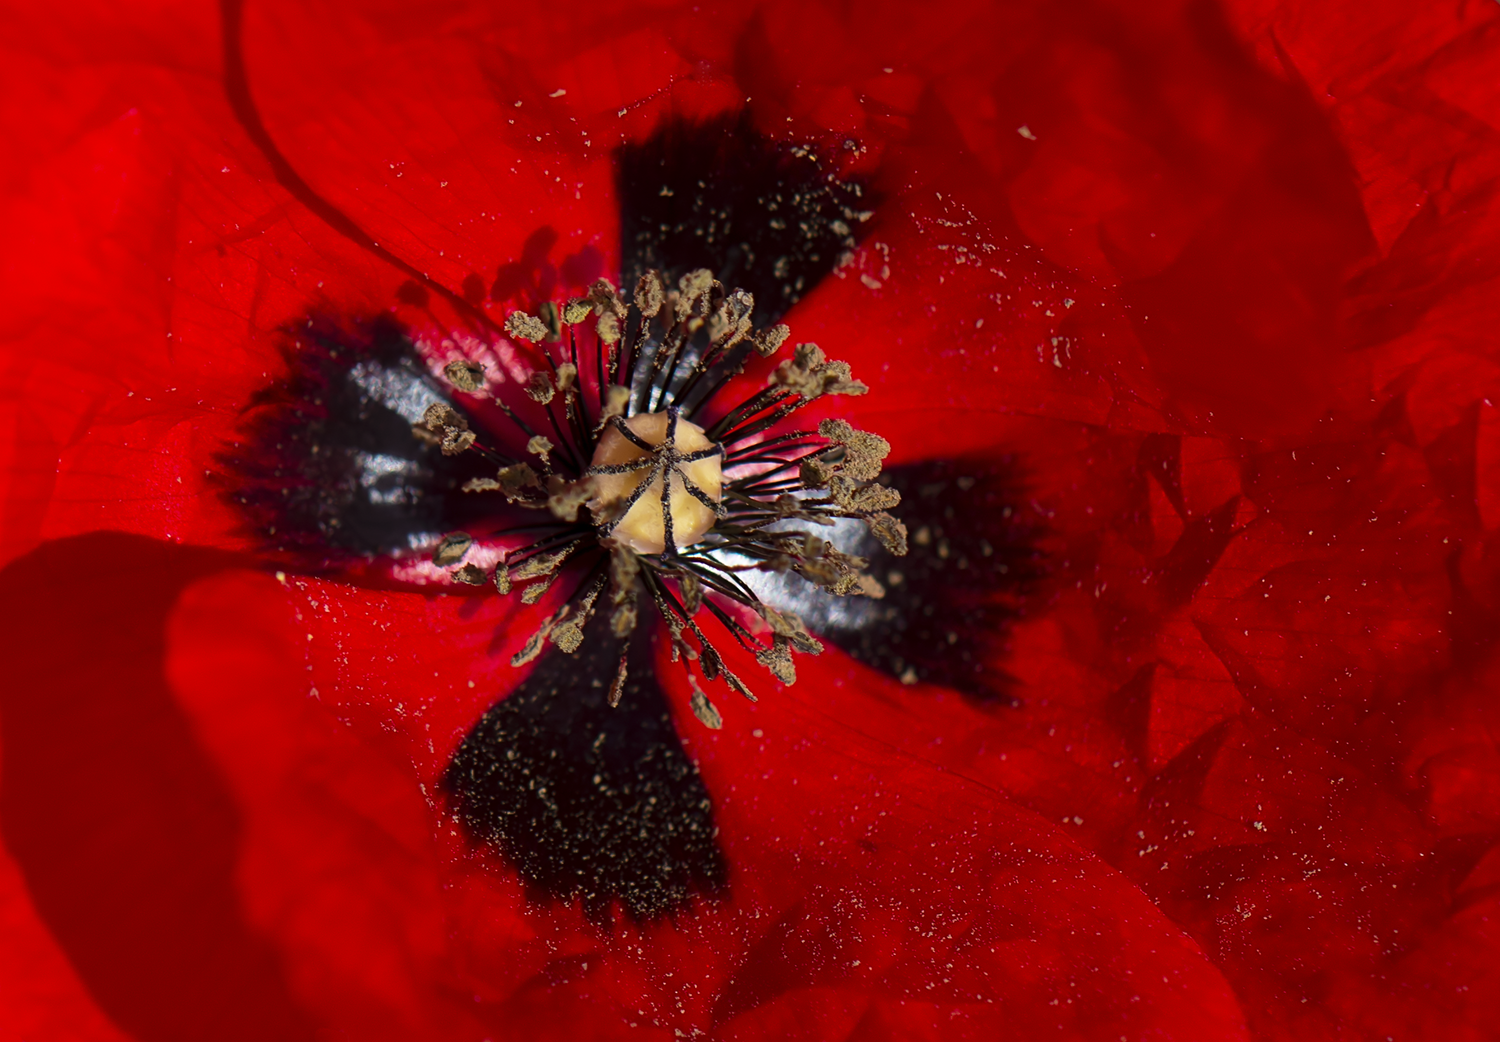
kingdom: Plantae
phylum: Tracheophyta
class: Magnoliopsida
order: Ranunculales
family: Papaveraceae
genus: Papaver
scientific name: Papaver rhoeas
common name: Corn poppy
